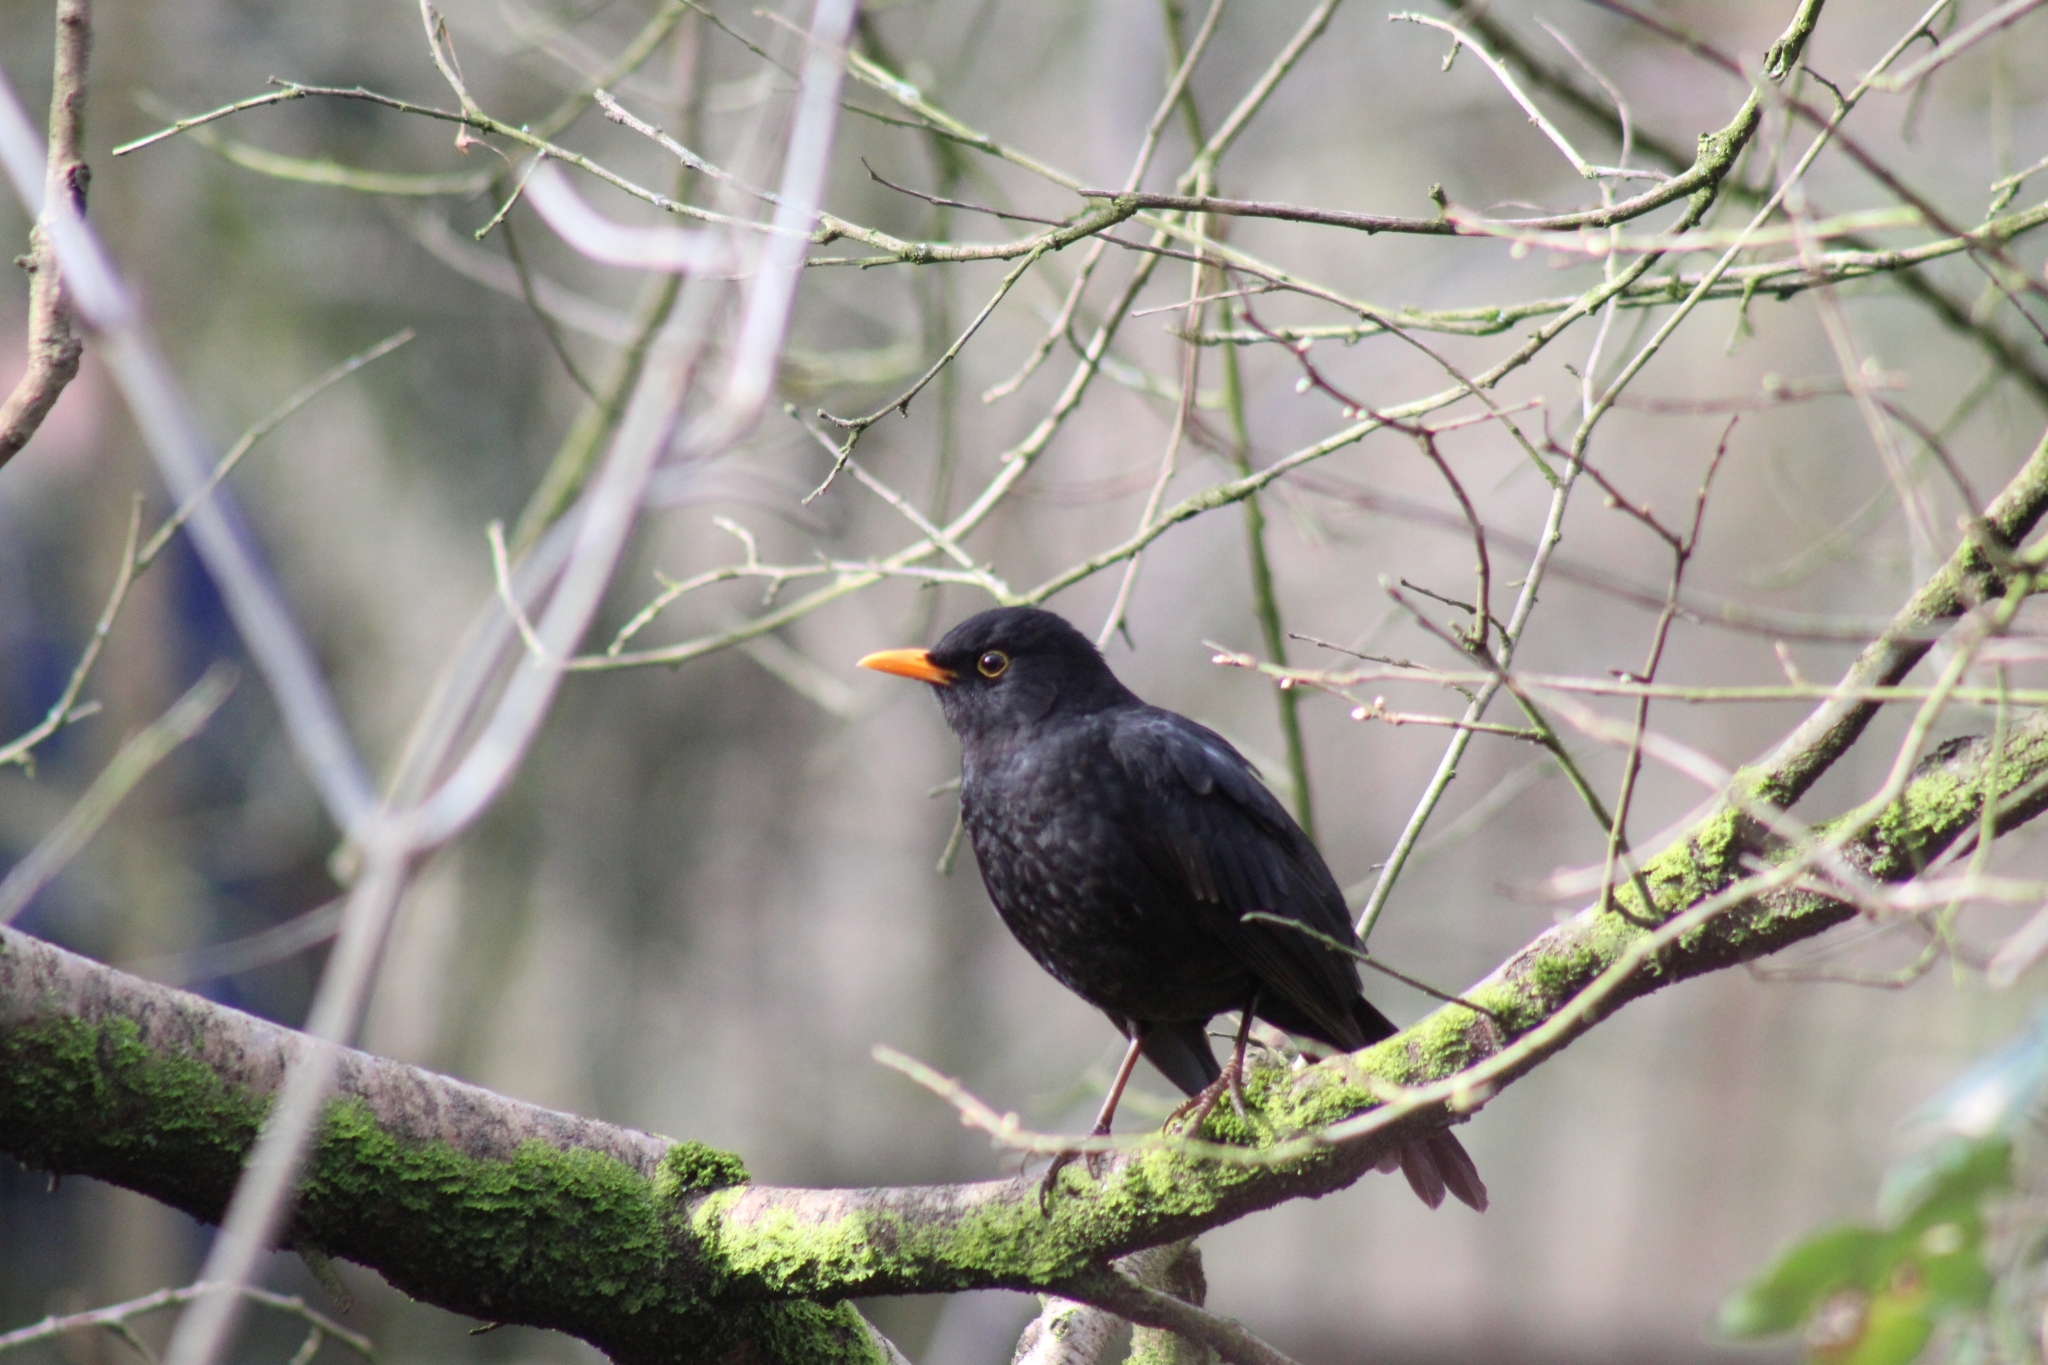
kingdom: Animalia
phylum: Chordata
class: Aves
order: Passeriformes
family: Turdidae
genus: Turdus
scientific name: Turdus merula
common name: Common blackbird
